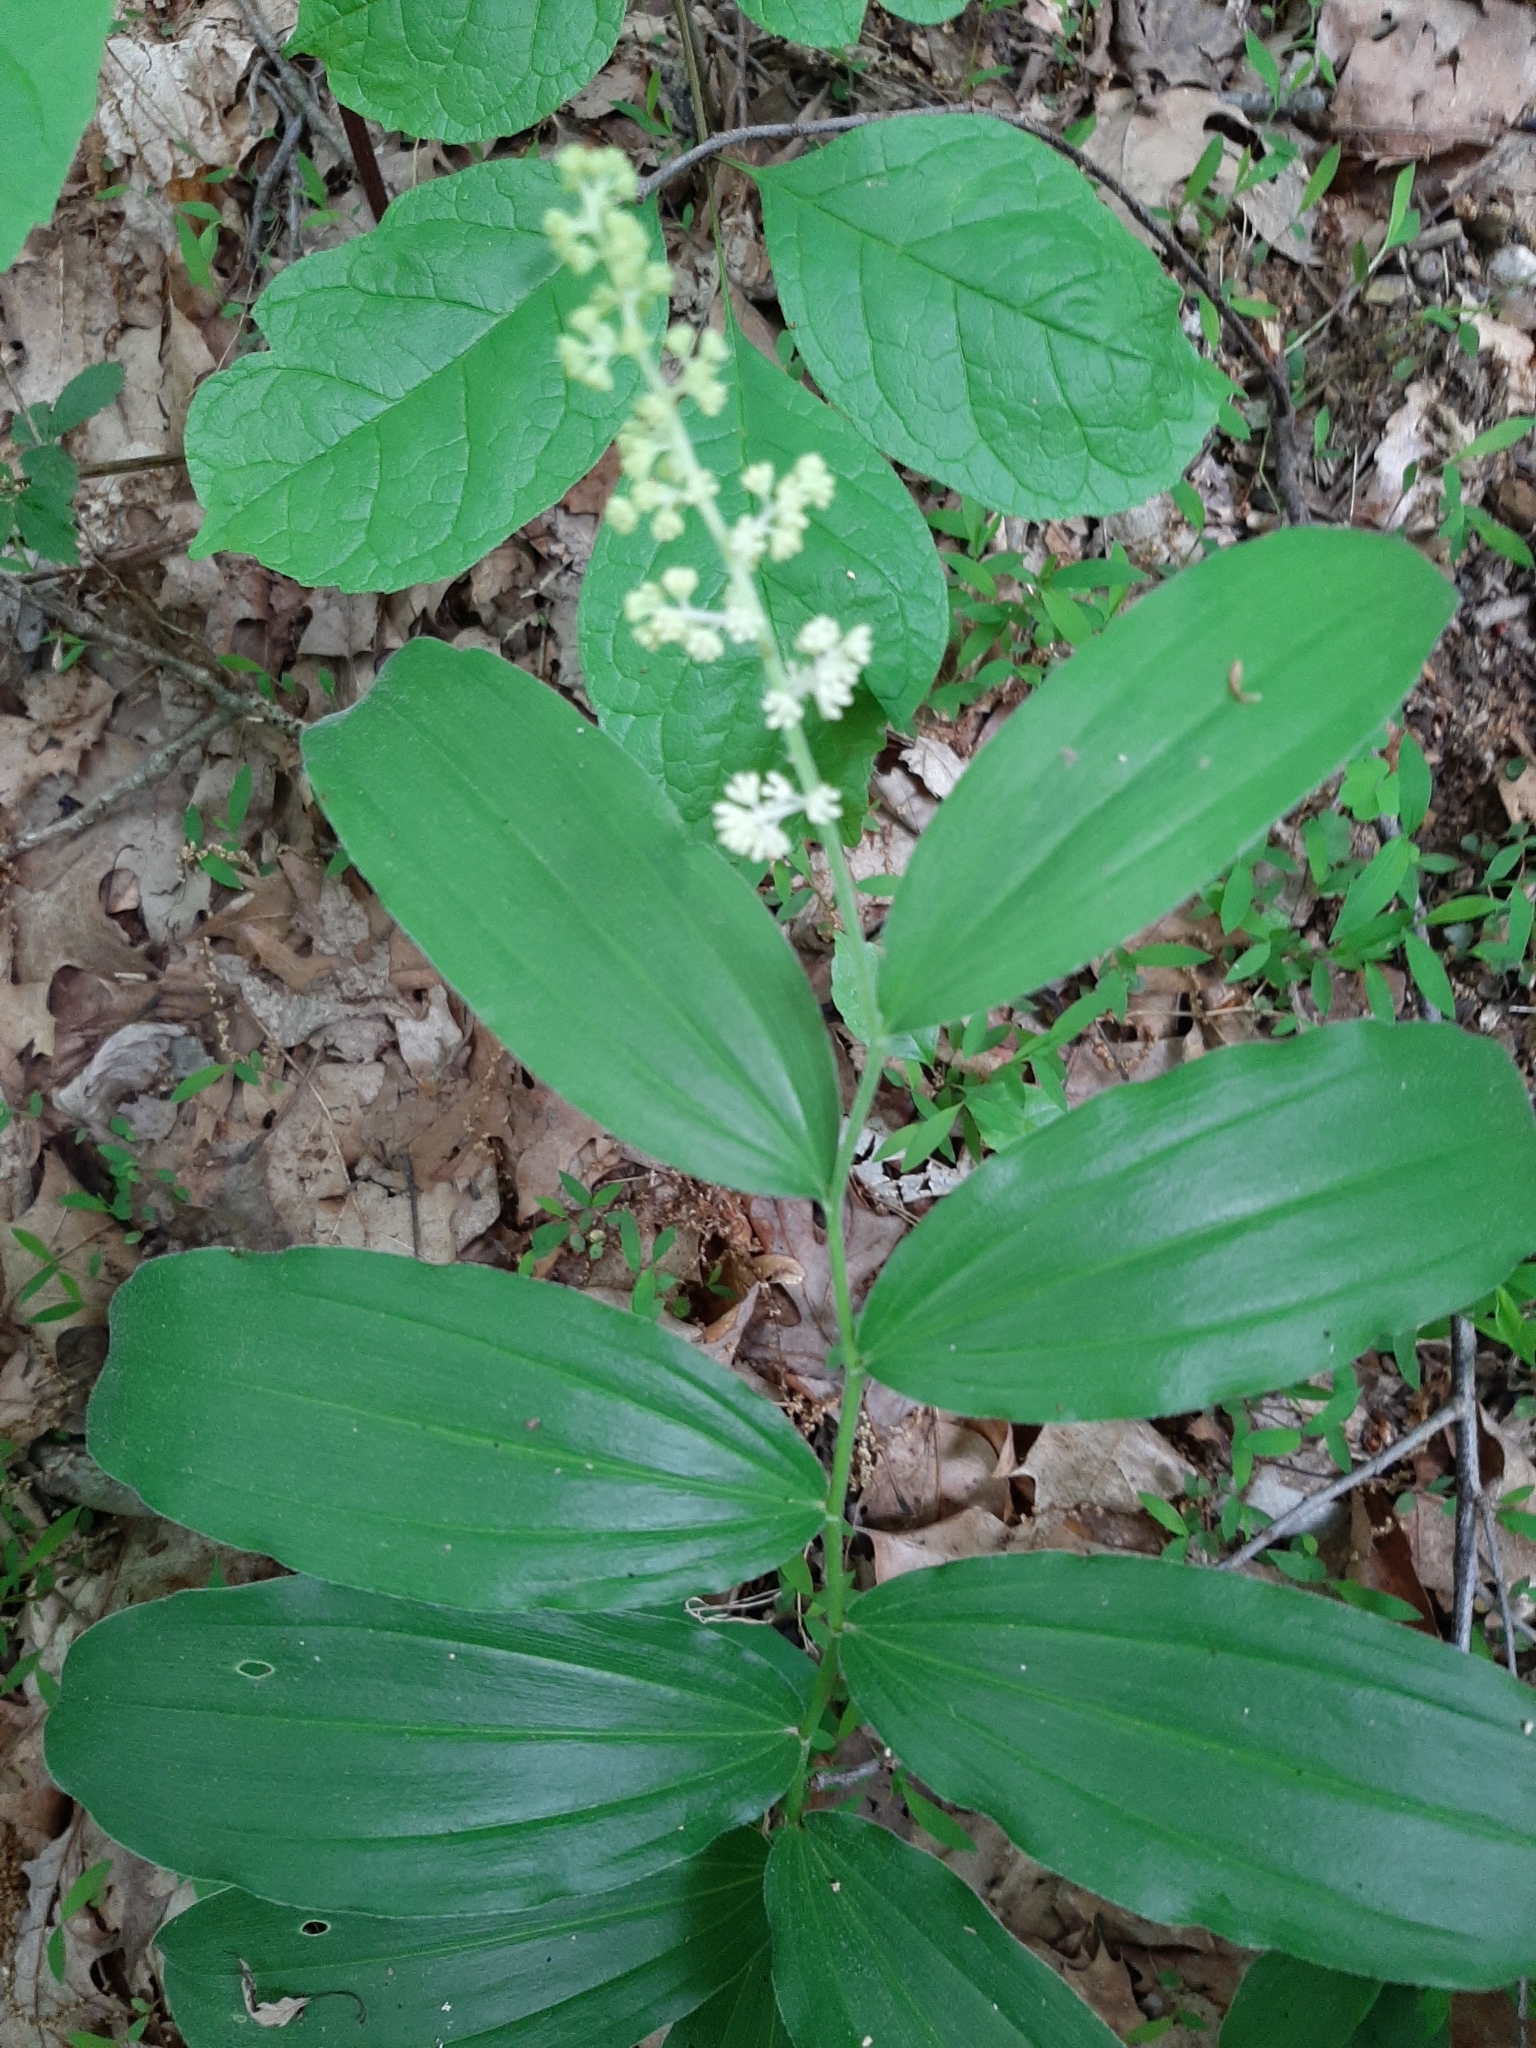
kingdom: Plantae
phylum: Tracheophyta
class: Liliopsida
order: Asparagales
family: Asparagaceae
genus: Maianthemum
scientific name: Maianthemum racemosum
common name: False spikenard
